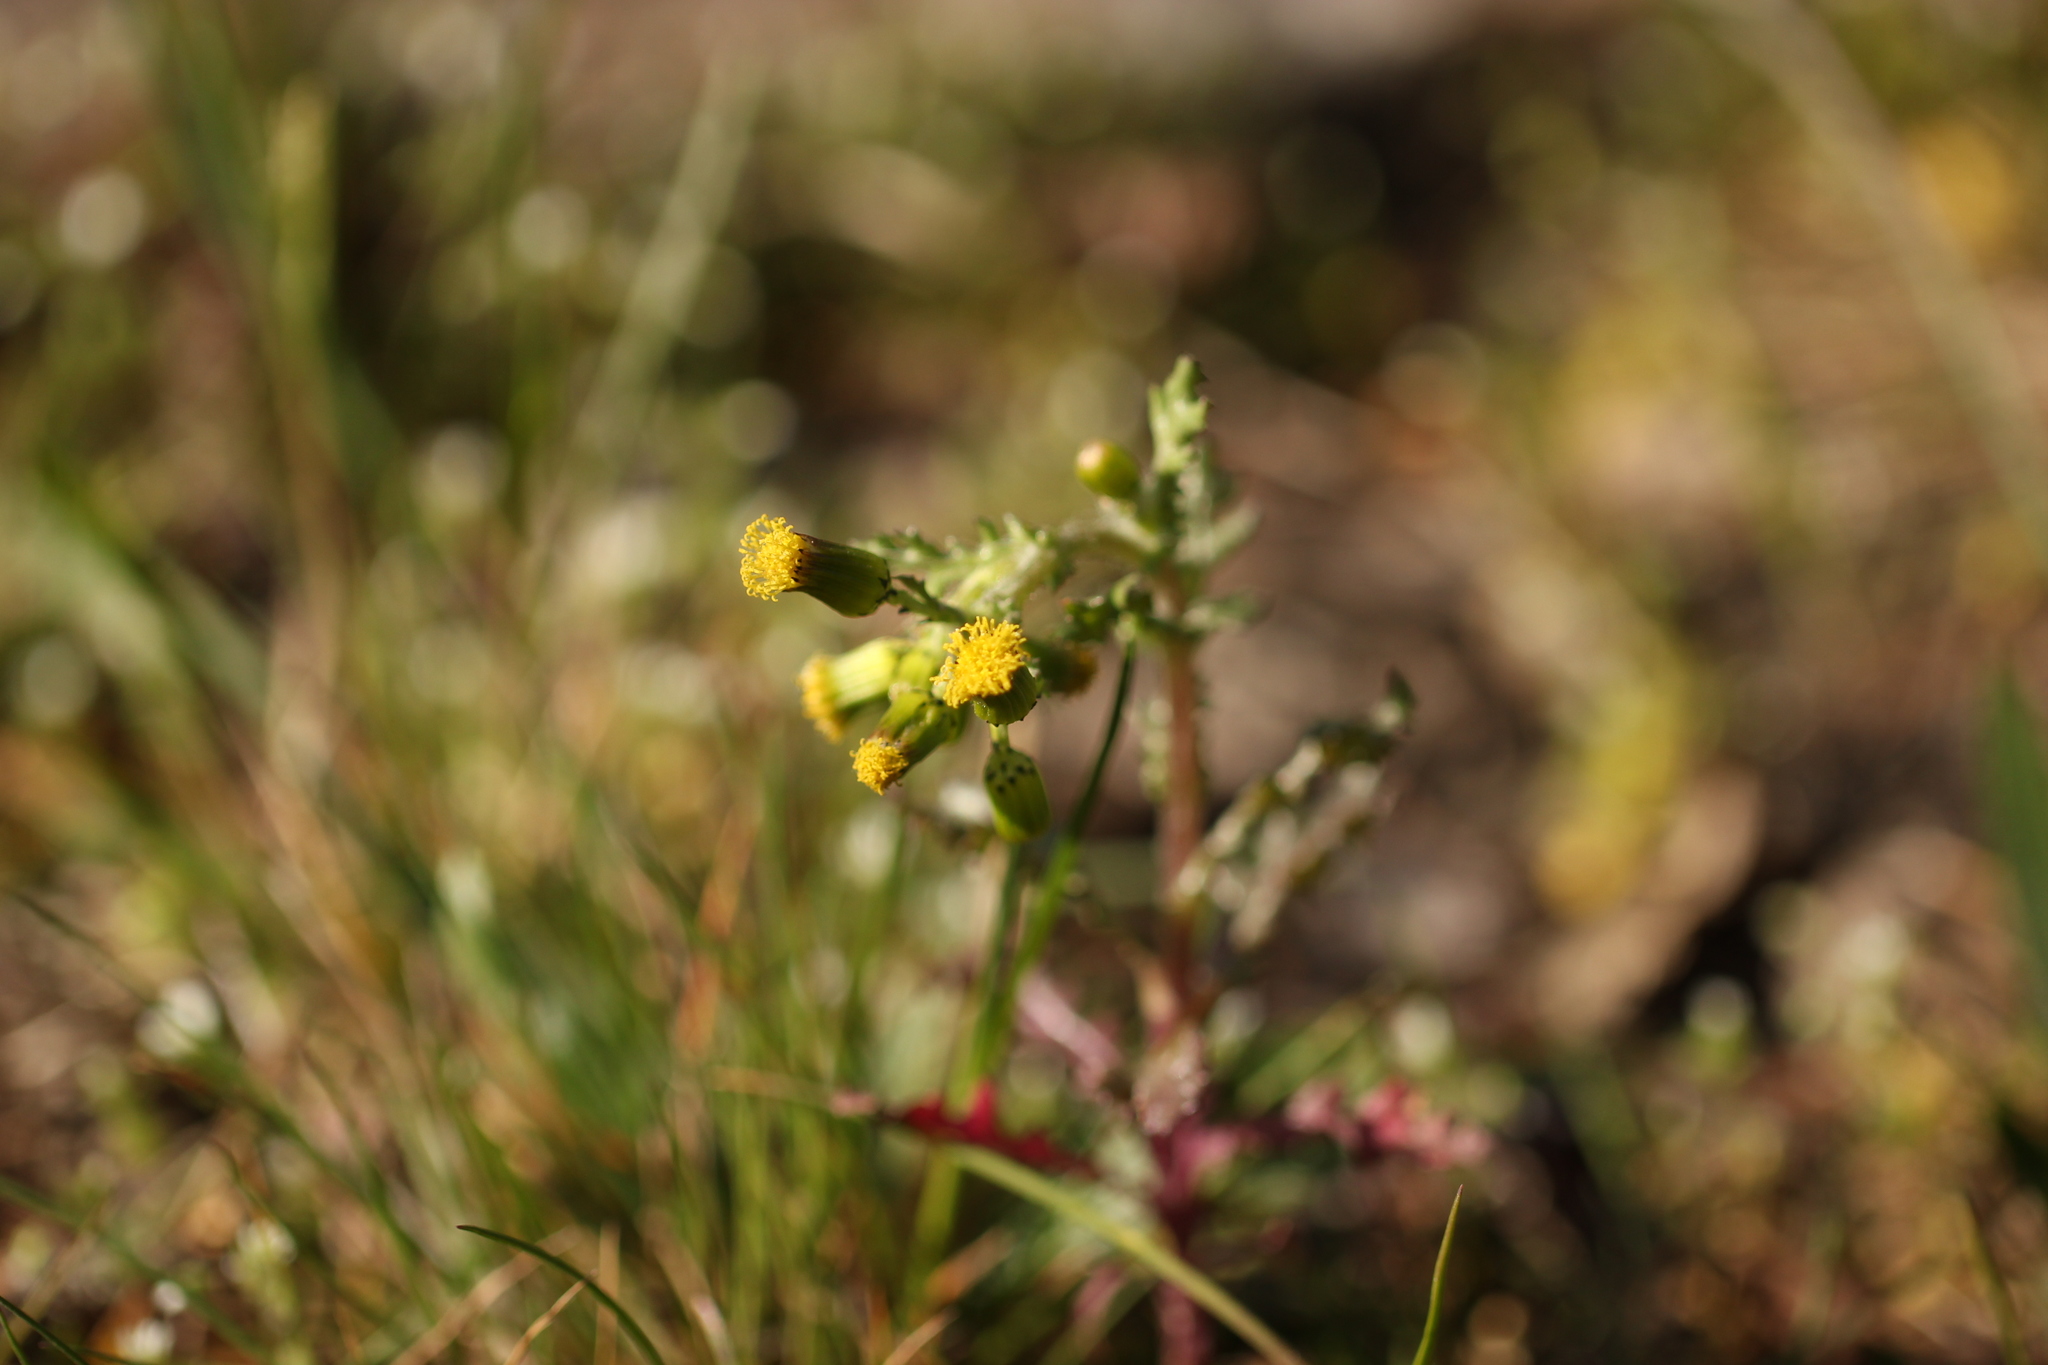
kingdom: Plantae
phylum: Tracheophyta
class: Magnoliopsida
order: Asterales
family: Asteraceae
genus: Senecio
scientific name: Senecio vulgaris
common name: Old-man-in-the-spring
